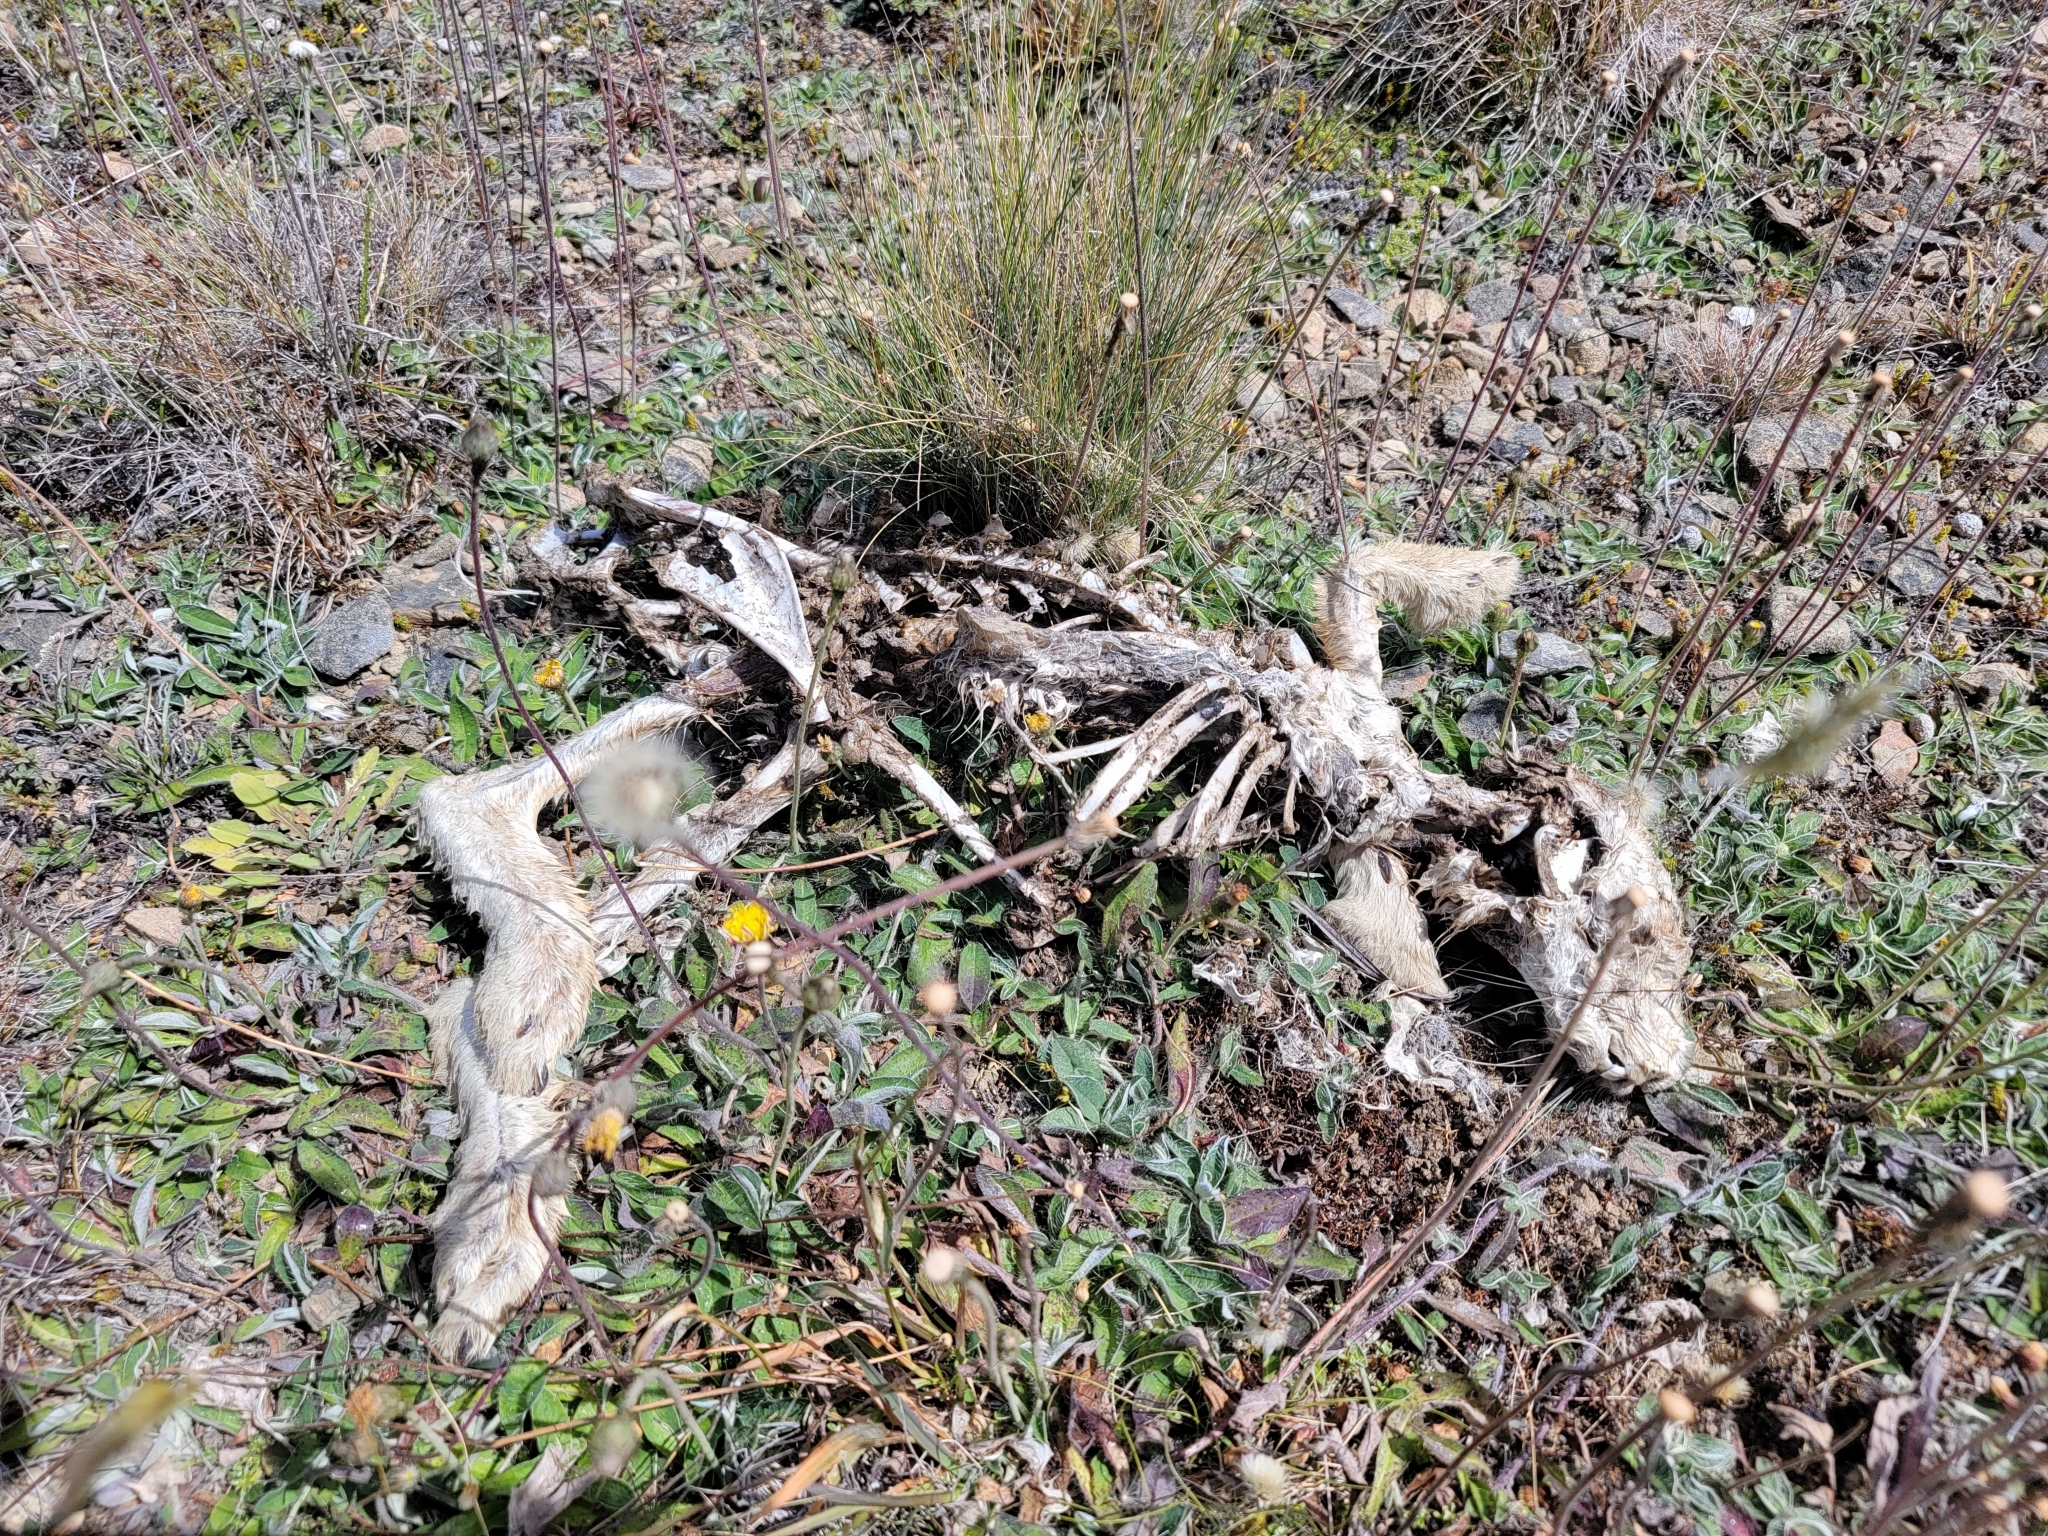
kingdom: Animalia
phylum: Chordata
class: Mammalia
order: Lagomorpha
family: Leporidae
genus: Lepus
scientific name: Lepus europaeus
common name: European hare
